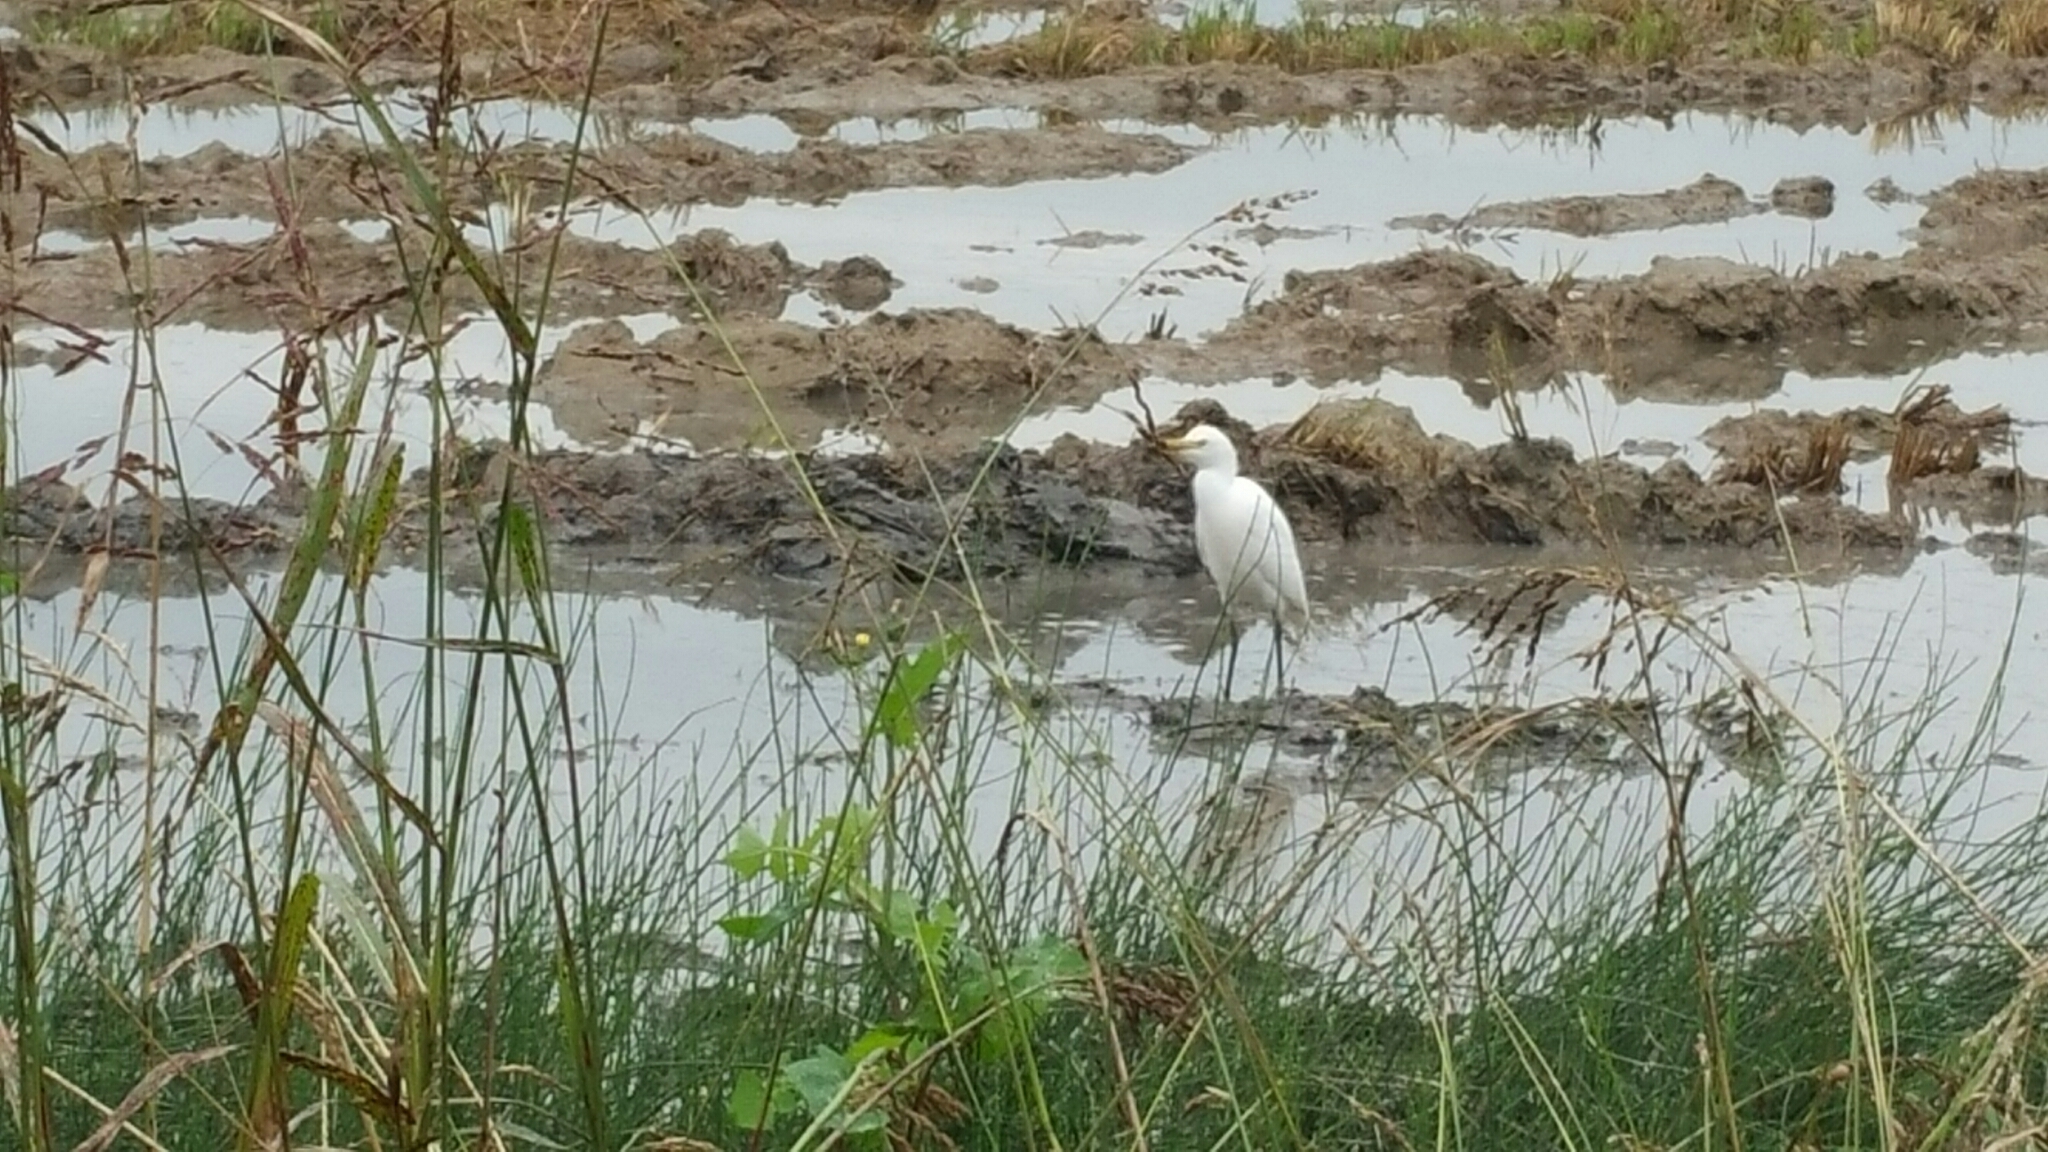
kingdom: Animalia
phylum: Chordata
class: Aves
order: Pelecaniformes
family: Ardeidae
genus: Bubulcus
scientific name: Bubulcus ibis
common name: Cattle egret
